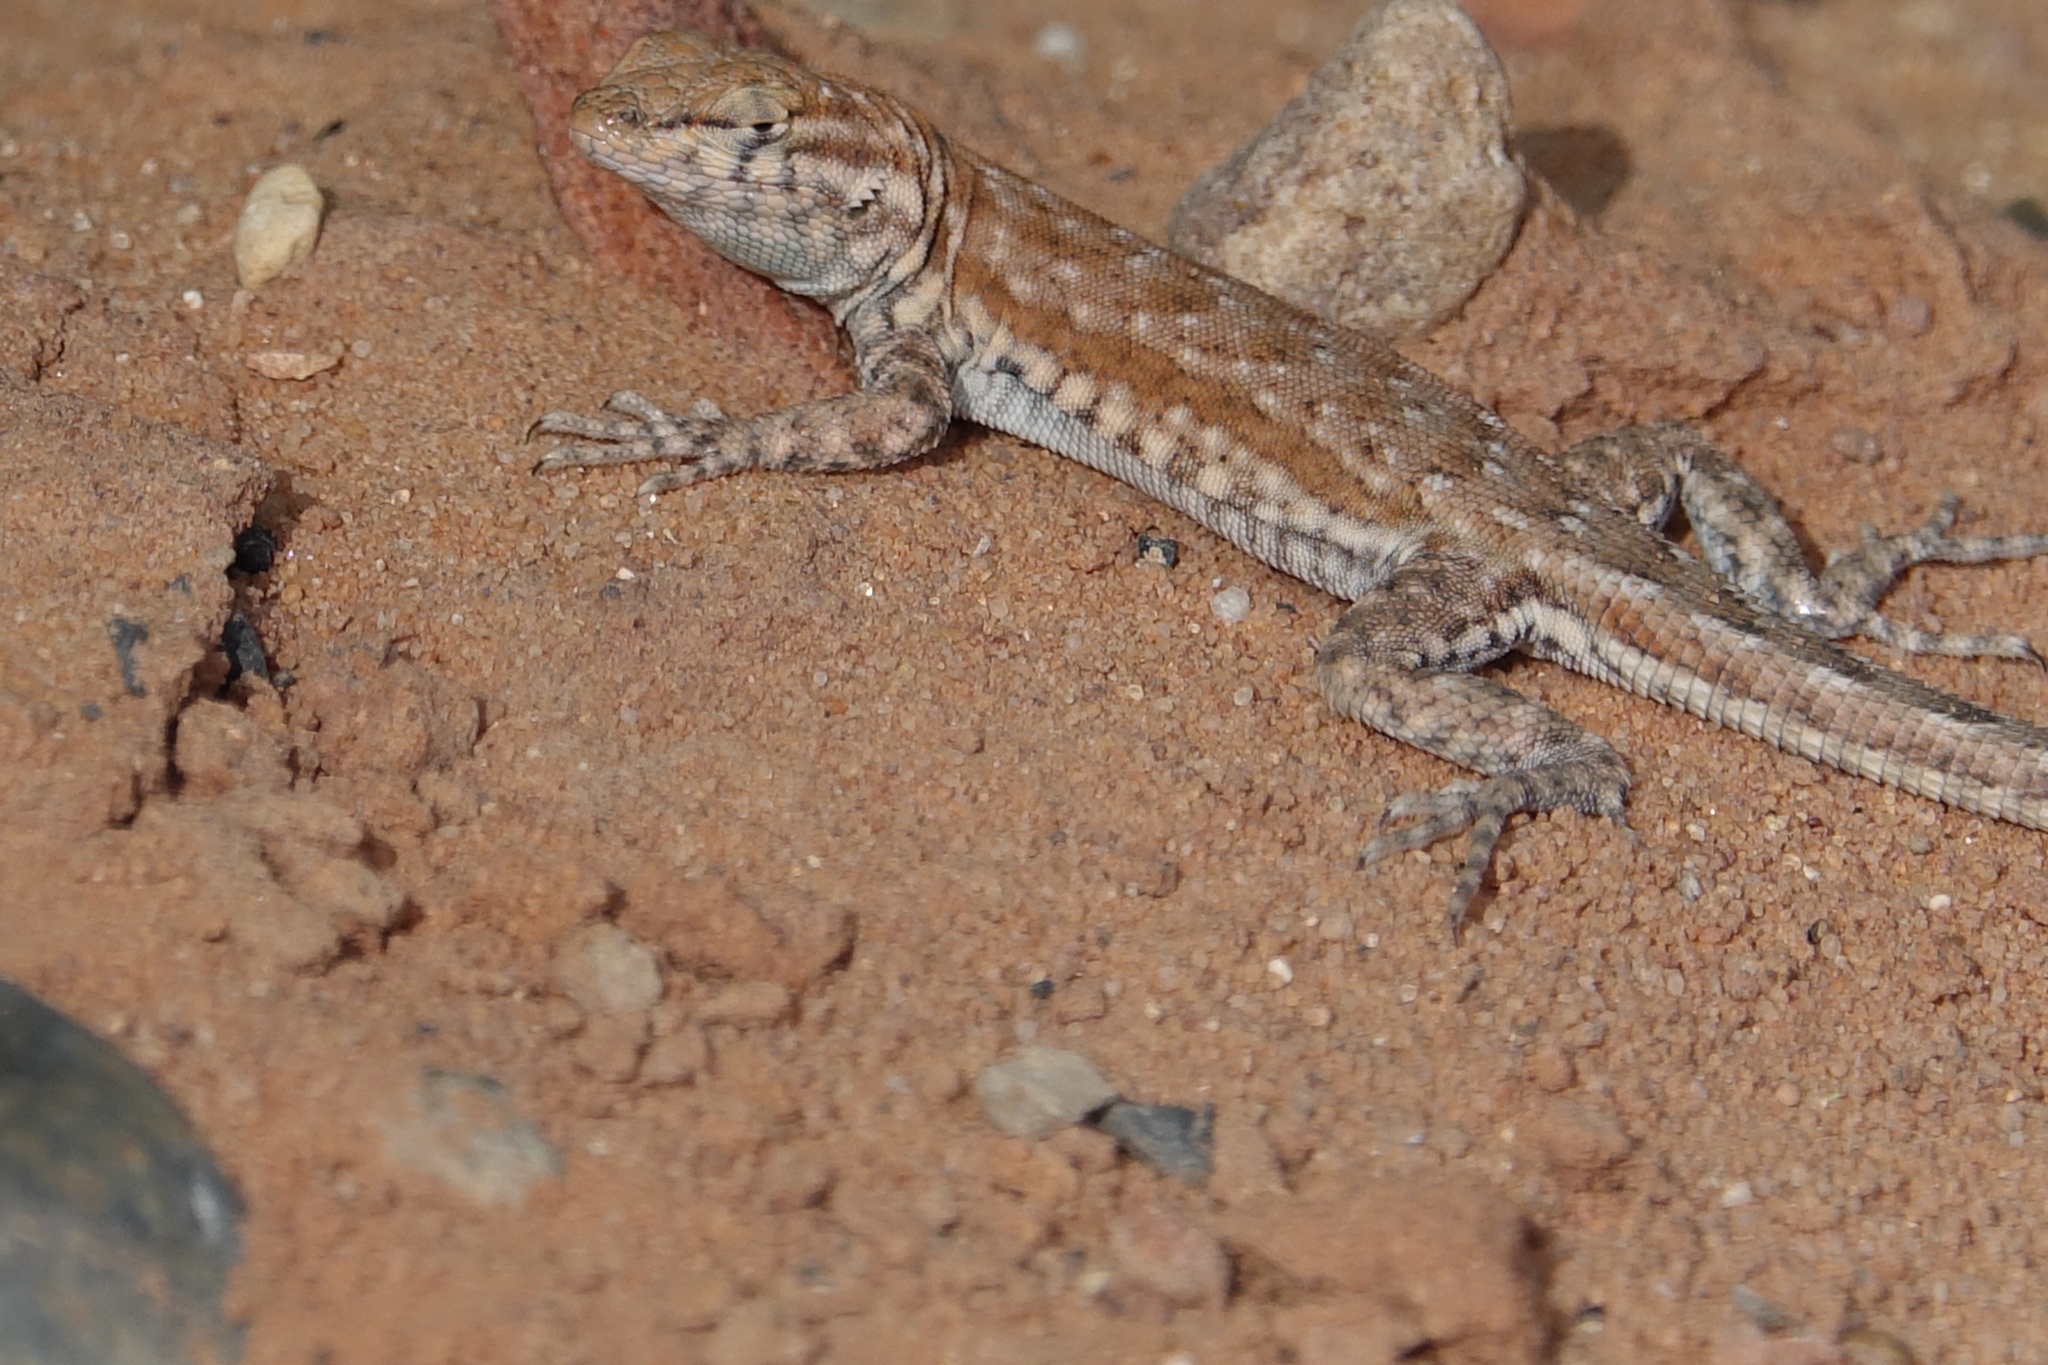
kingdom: Animalia
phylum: Chordata
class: Squamata
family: Phrynosomatidae
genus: Uta
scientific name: Uta stansburiana
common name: Side-blotched lizard
